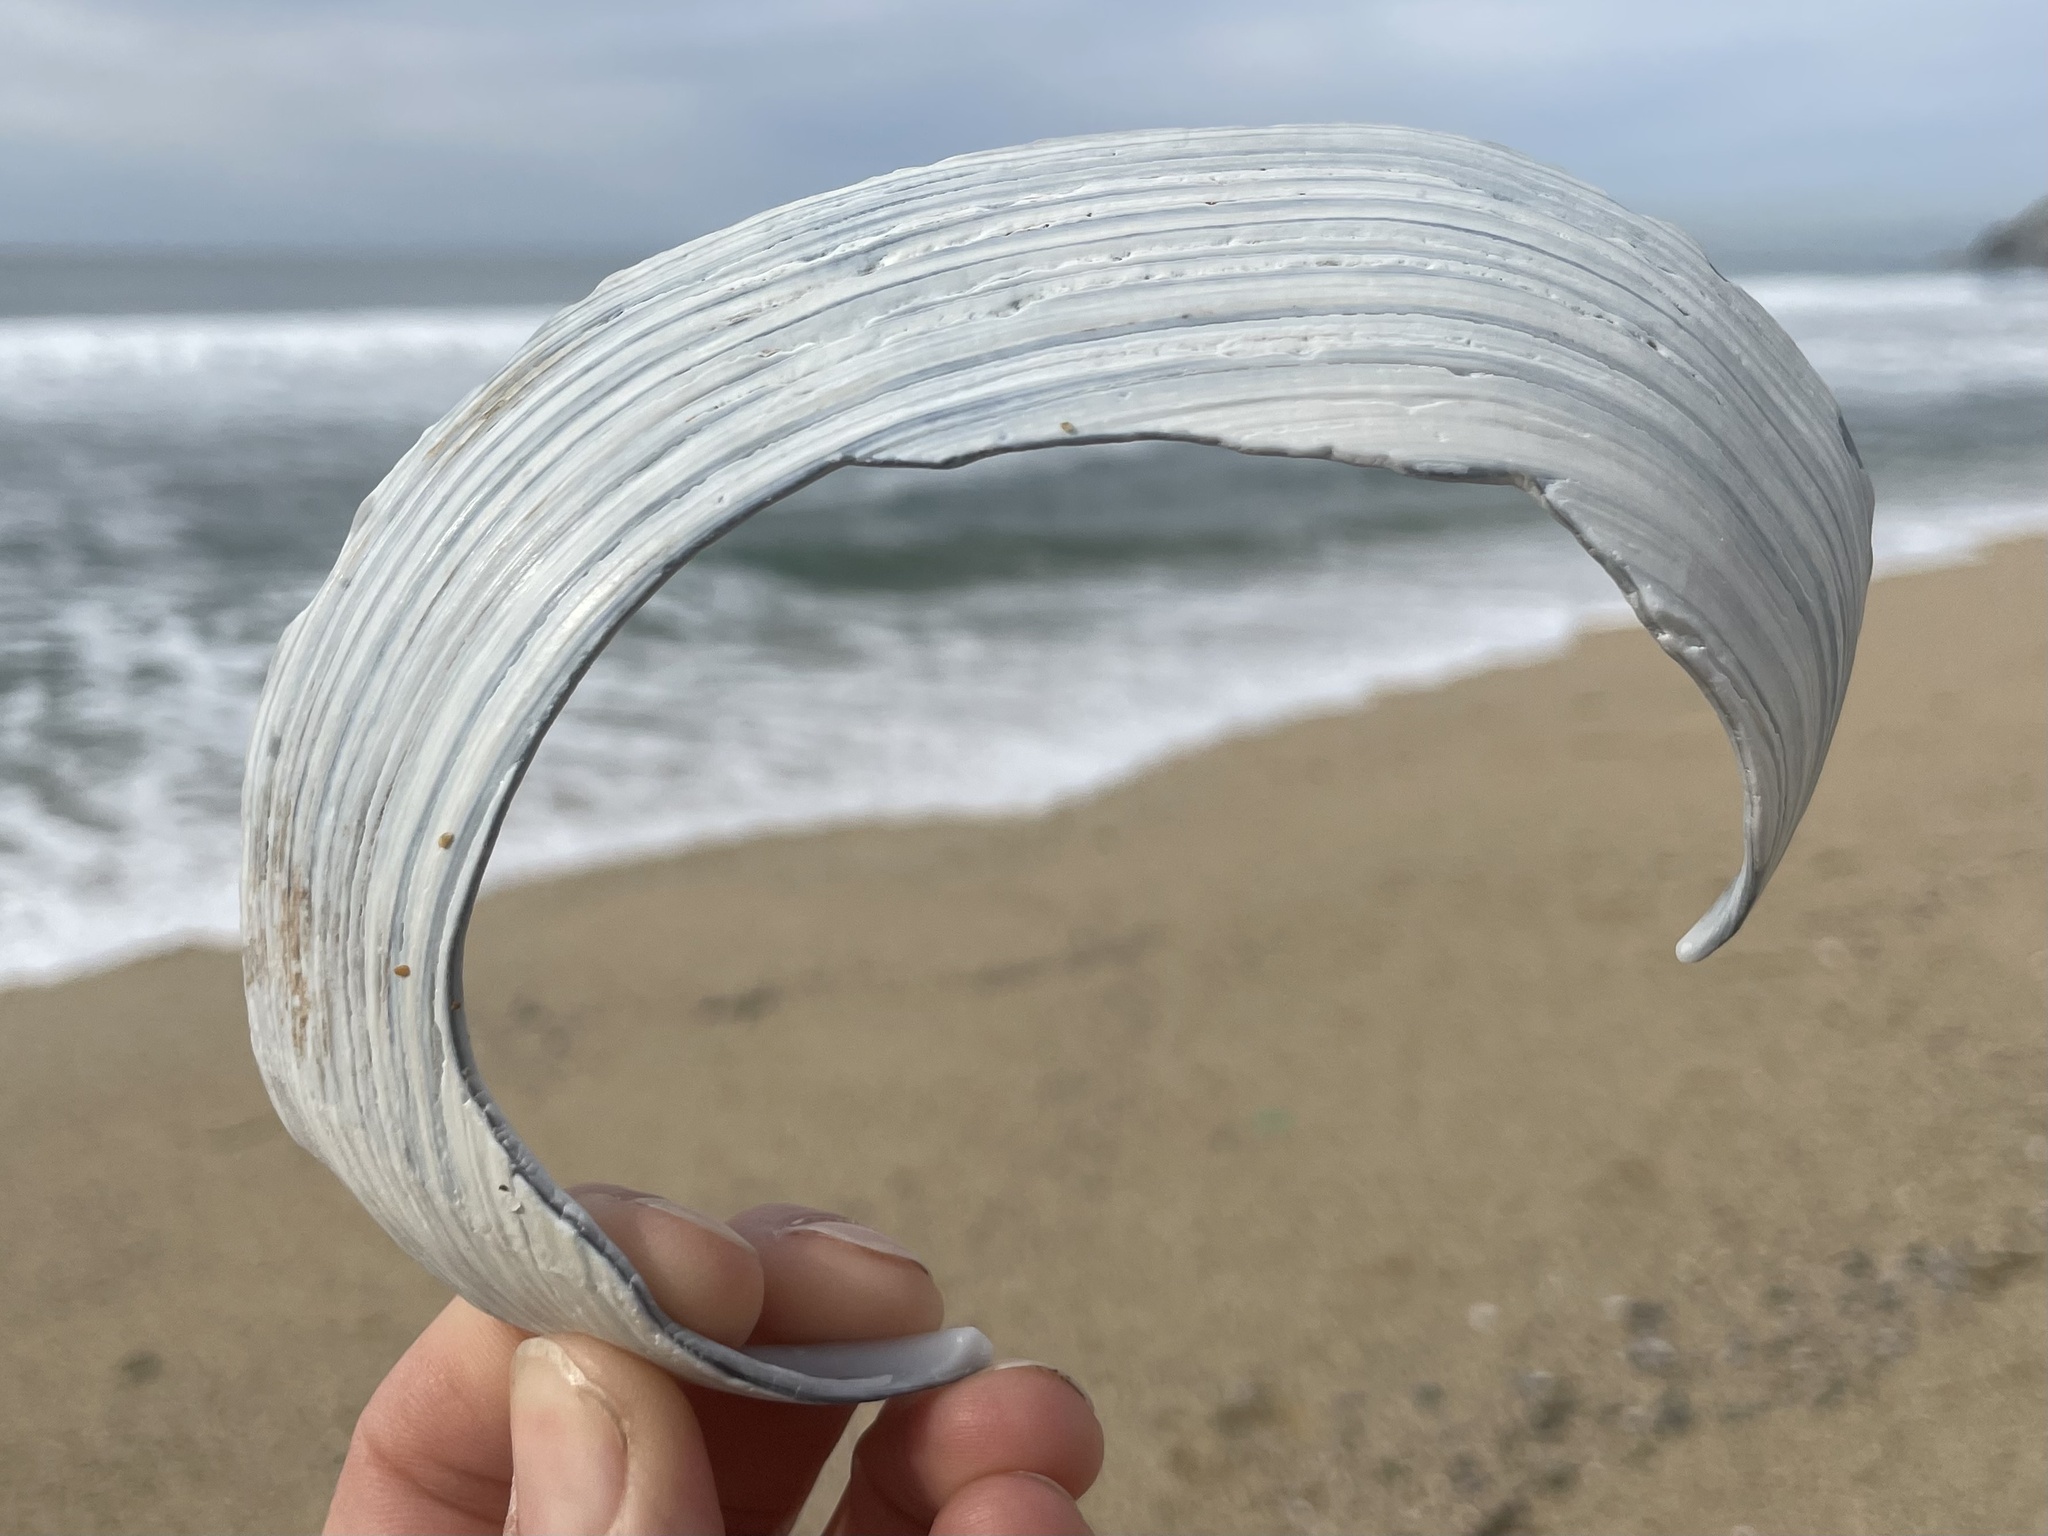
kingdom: Animalia
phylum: Mollusca
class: Bivalvia
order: Venerida
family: Mactridae
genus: Mactromeris
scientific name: Mactromeris catilliformis
